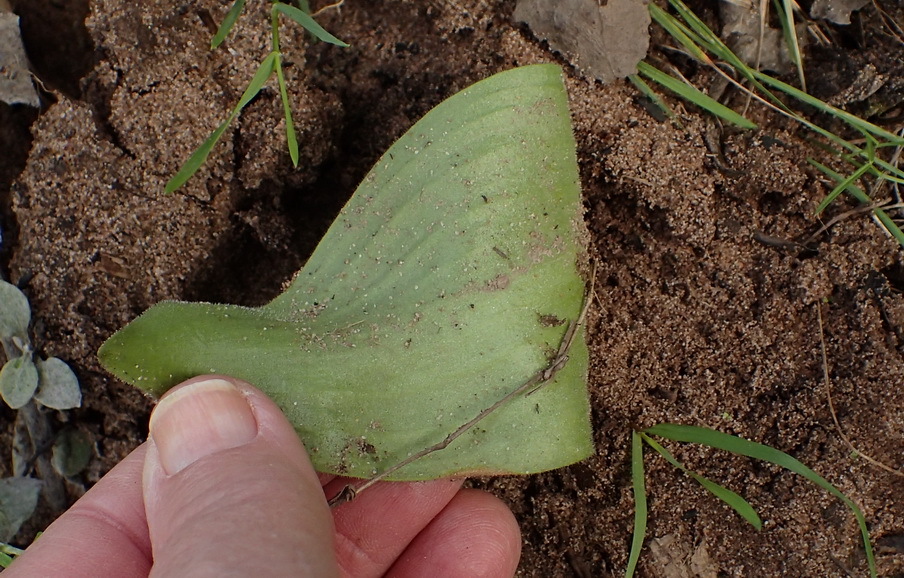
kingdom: Plantae
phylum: Tracheophyta
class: Liliopsida
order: Asparagales
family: Asparagaceae
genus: Eriospermum
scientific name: Eriospermum dielsianum
